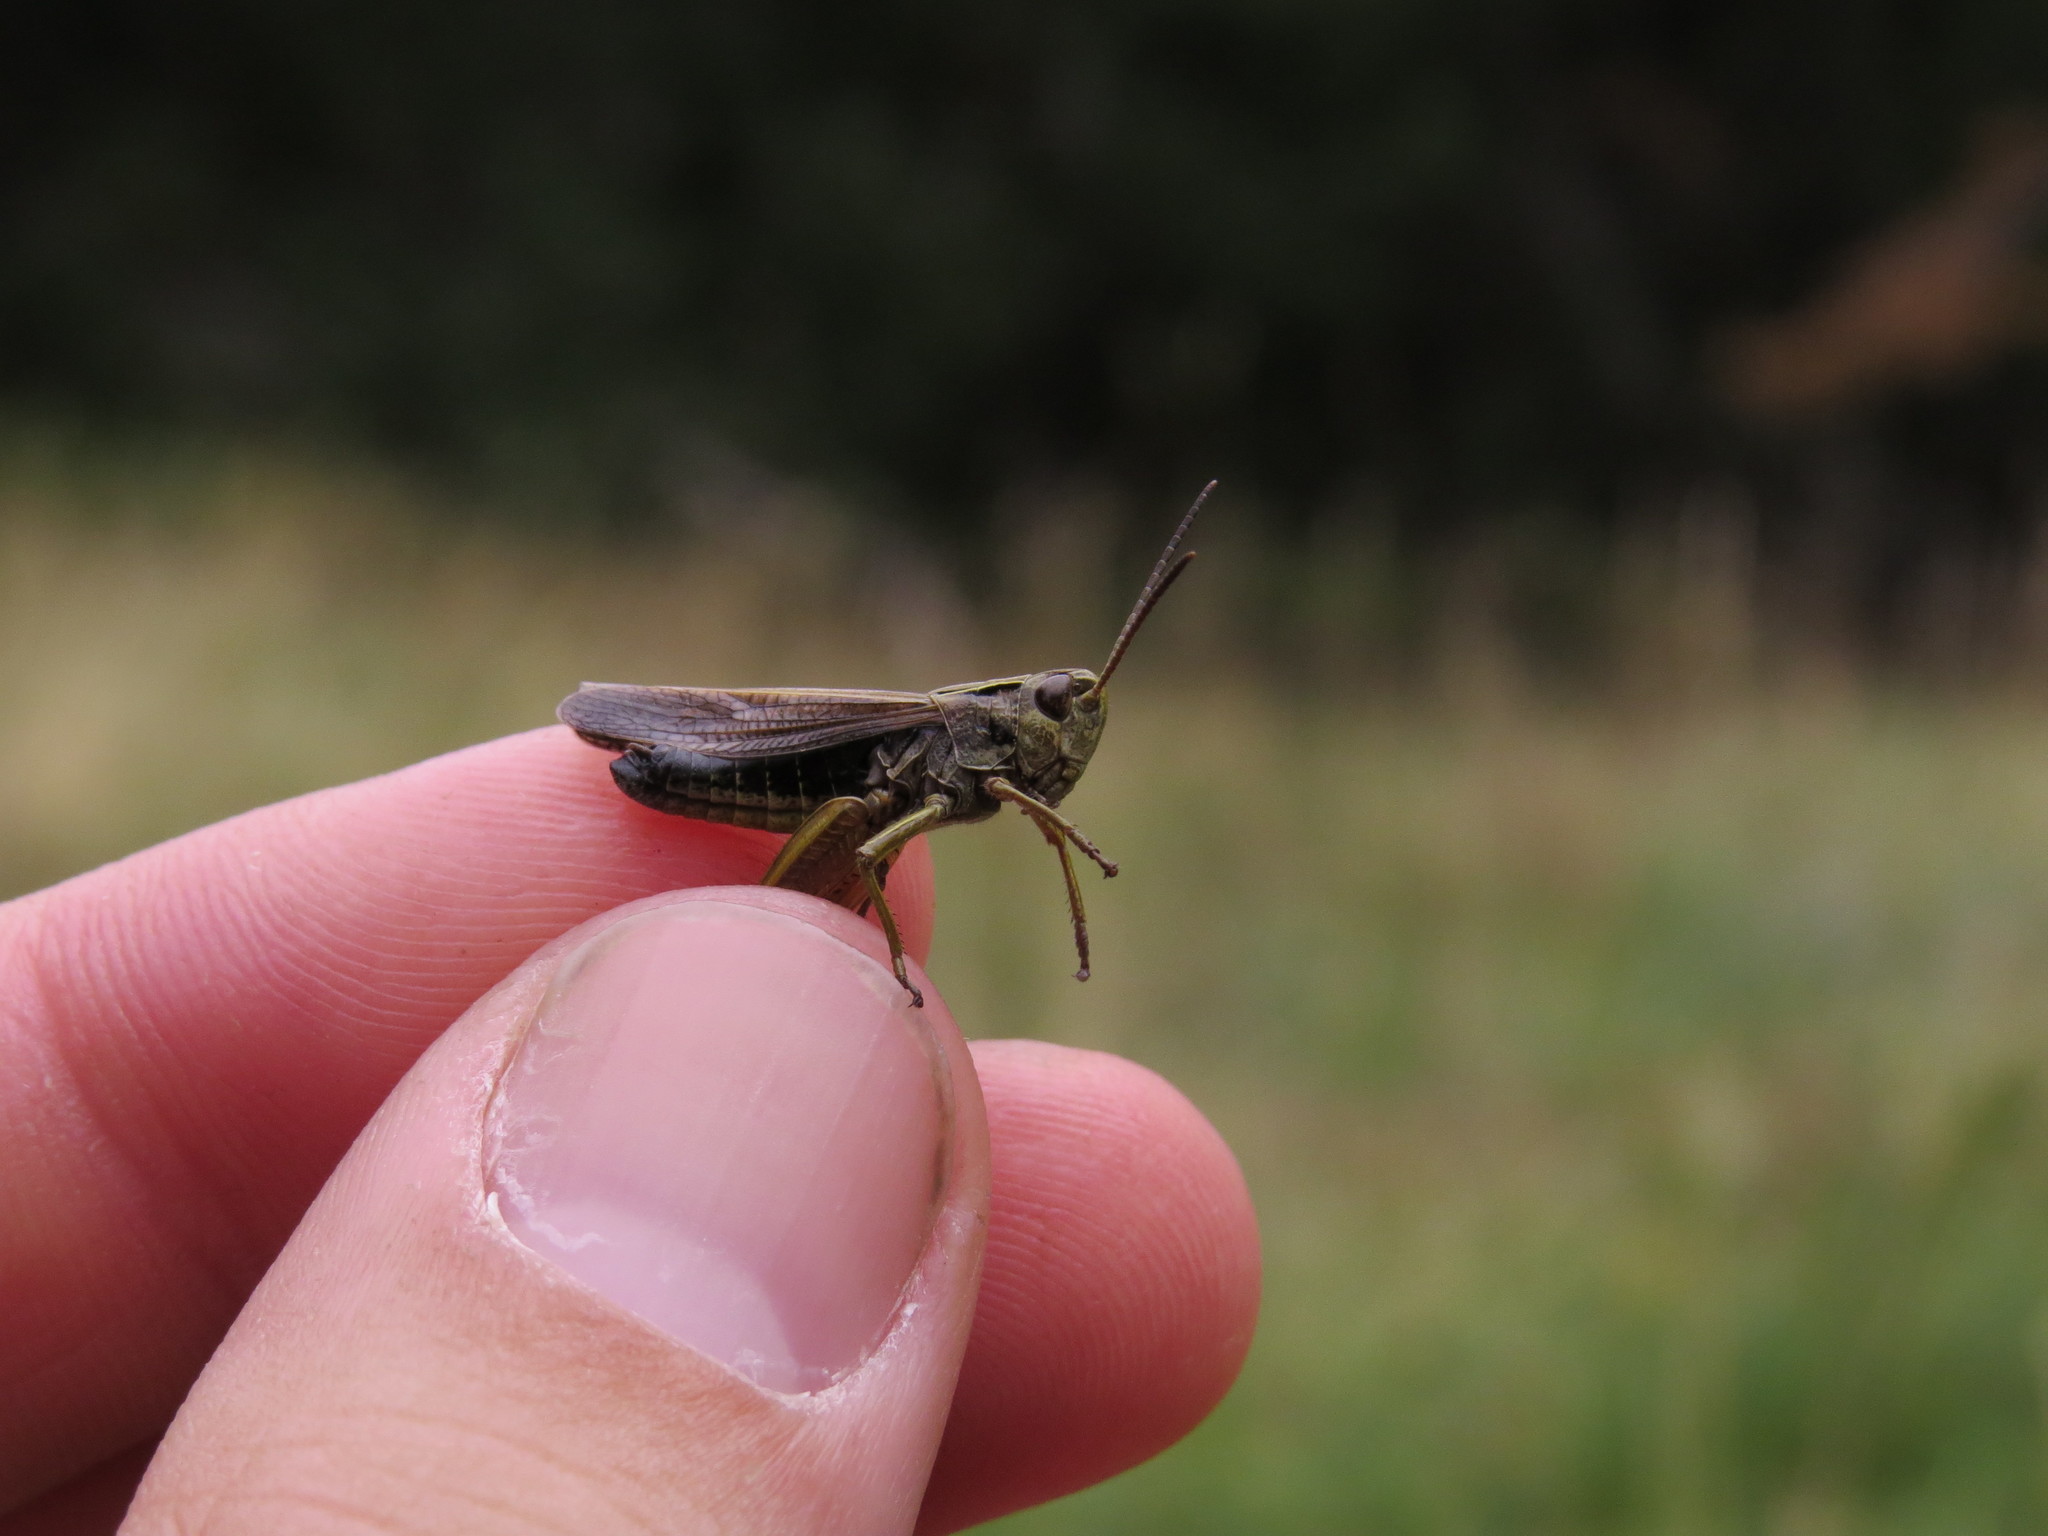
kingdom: Animalia
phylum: Arthropoda
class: Insecta
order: Orthoptera
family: Acrididae
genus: Omocestus
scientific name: Omocestus viridulus
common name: Common green grasshopper
